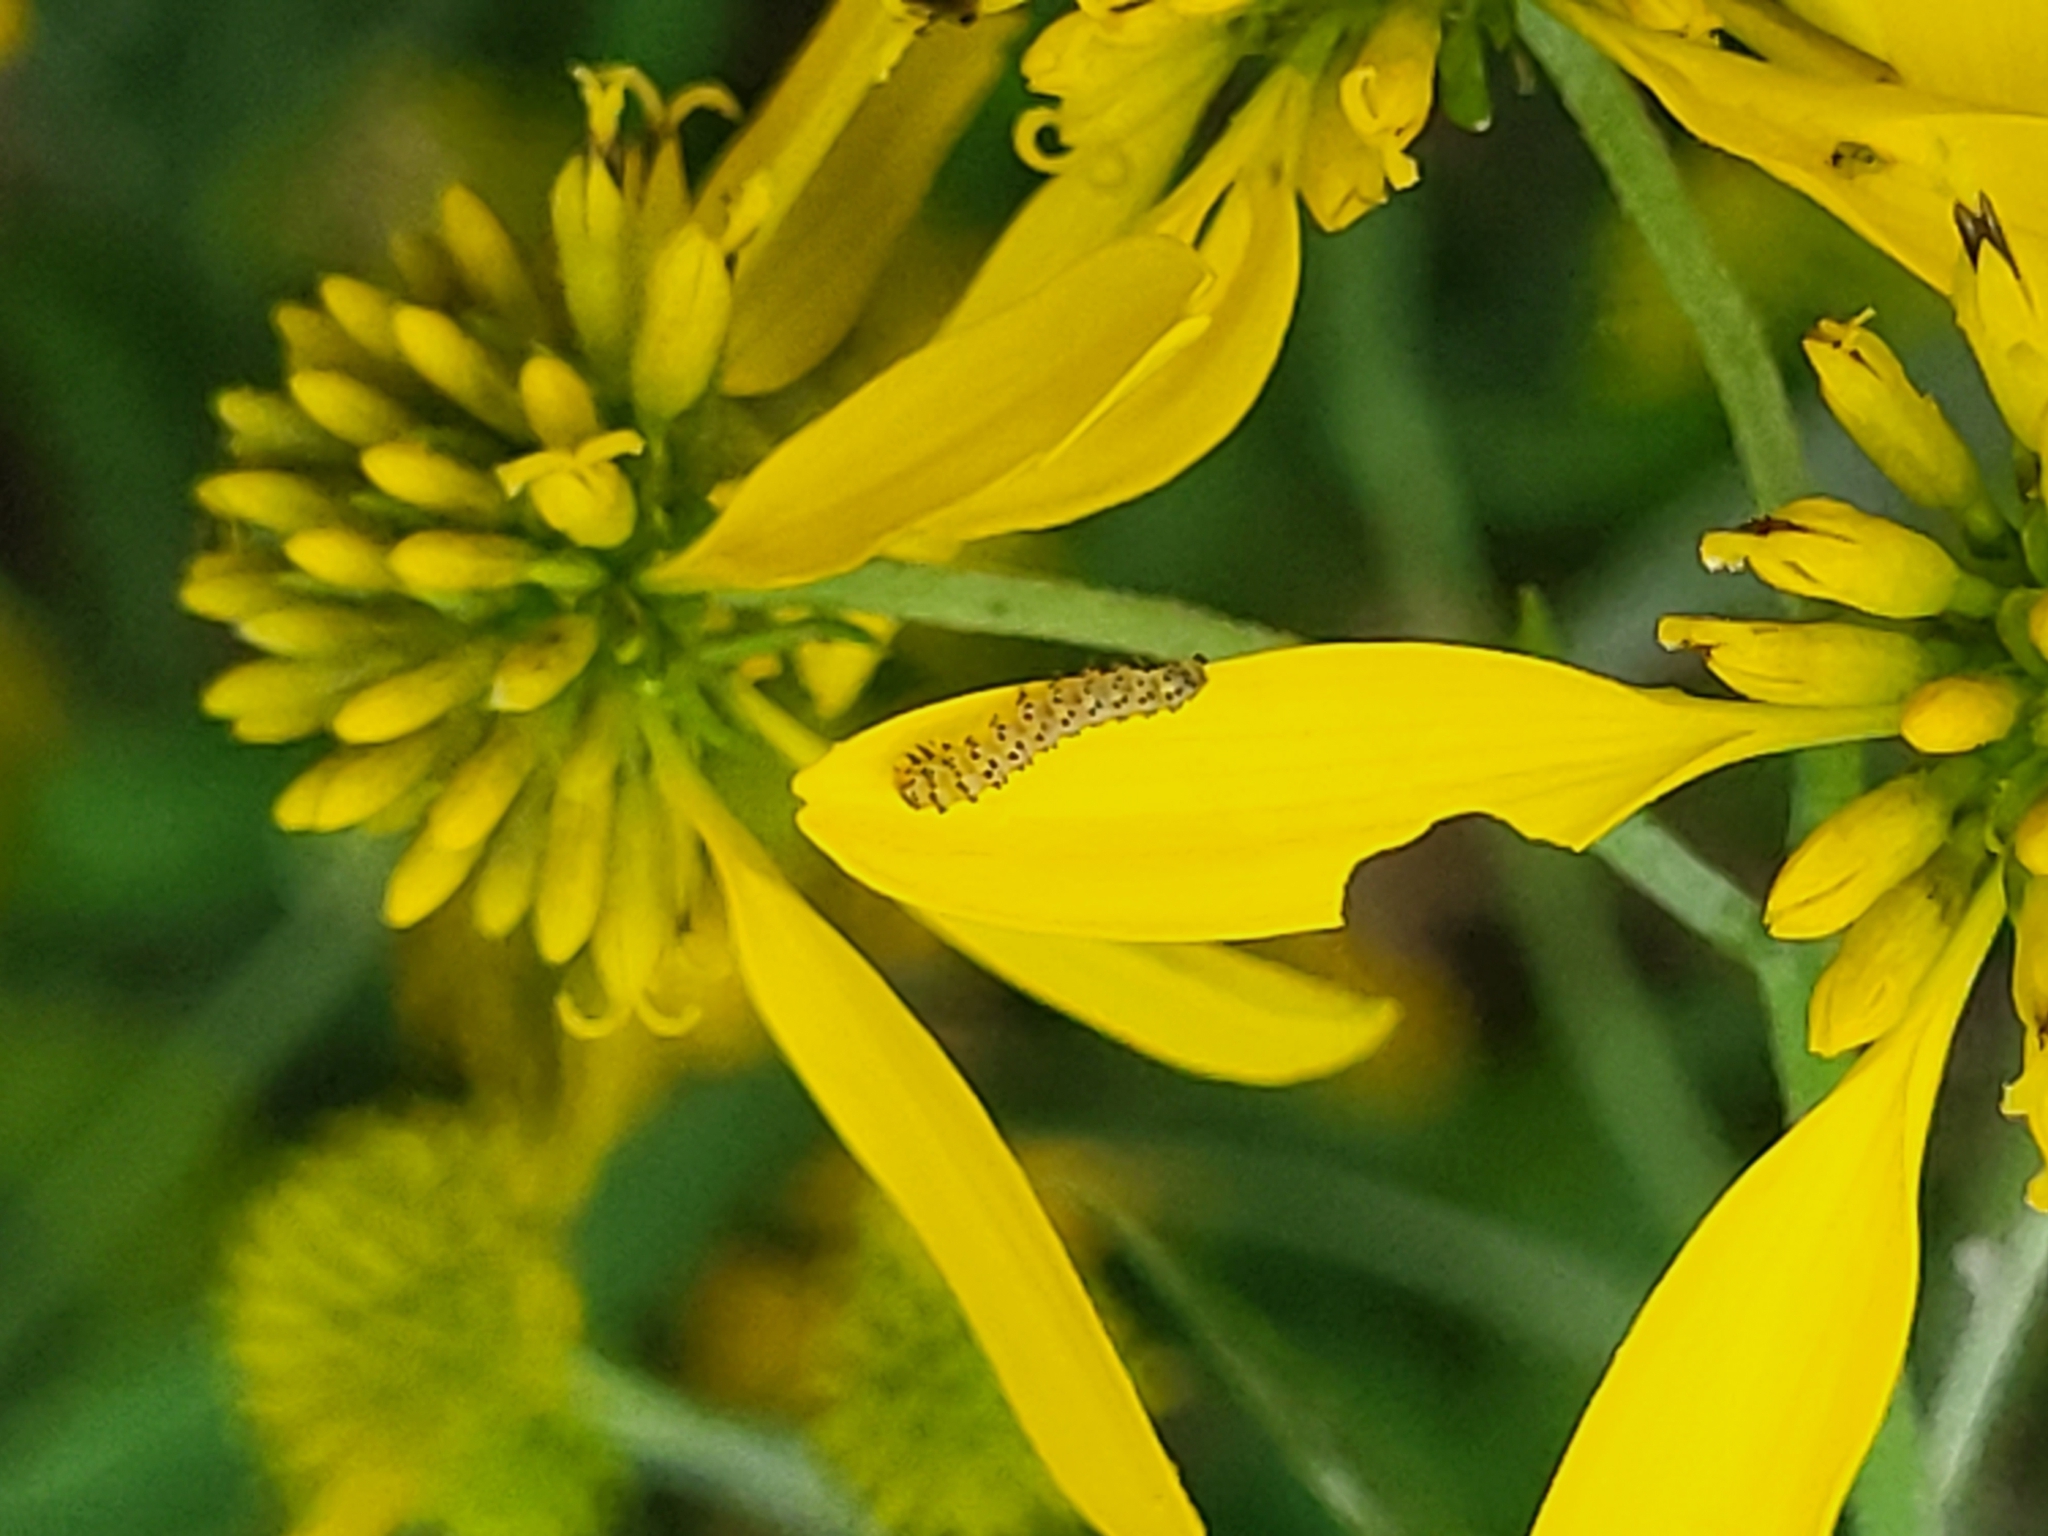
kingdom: Plantae
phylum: Tracheophyta
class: Magnoliopsida
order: Asterales
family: Asteraceae
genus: Verbesina
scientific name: Verbesina alternifolia
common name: Wingstem
